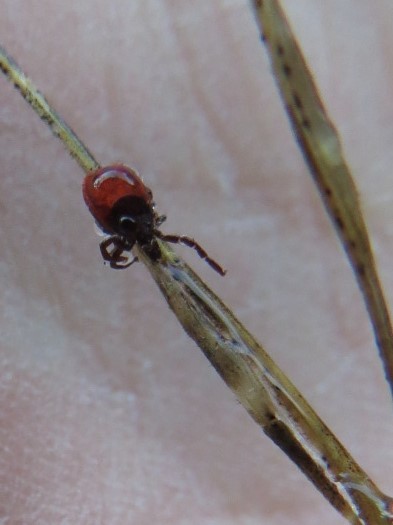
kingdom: Animalia
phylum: Arthropoda
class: Arachnida
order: Ixodida
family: Ixodidae
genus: Ixodes
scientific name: Ixodes pacificus
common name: California black-legged tick
